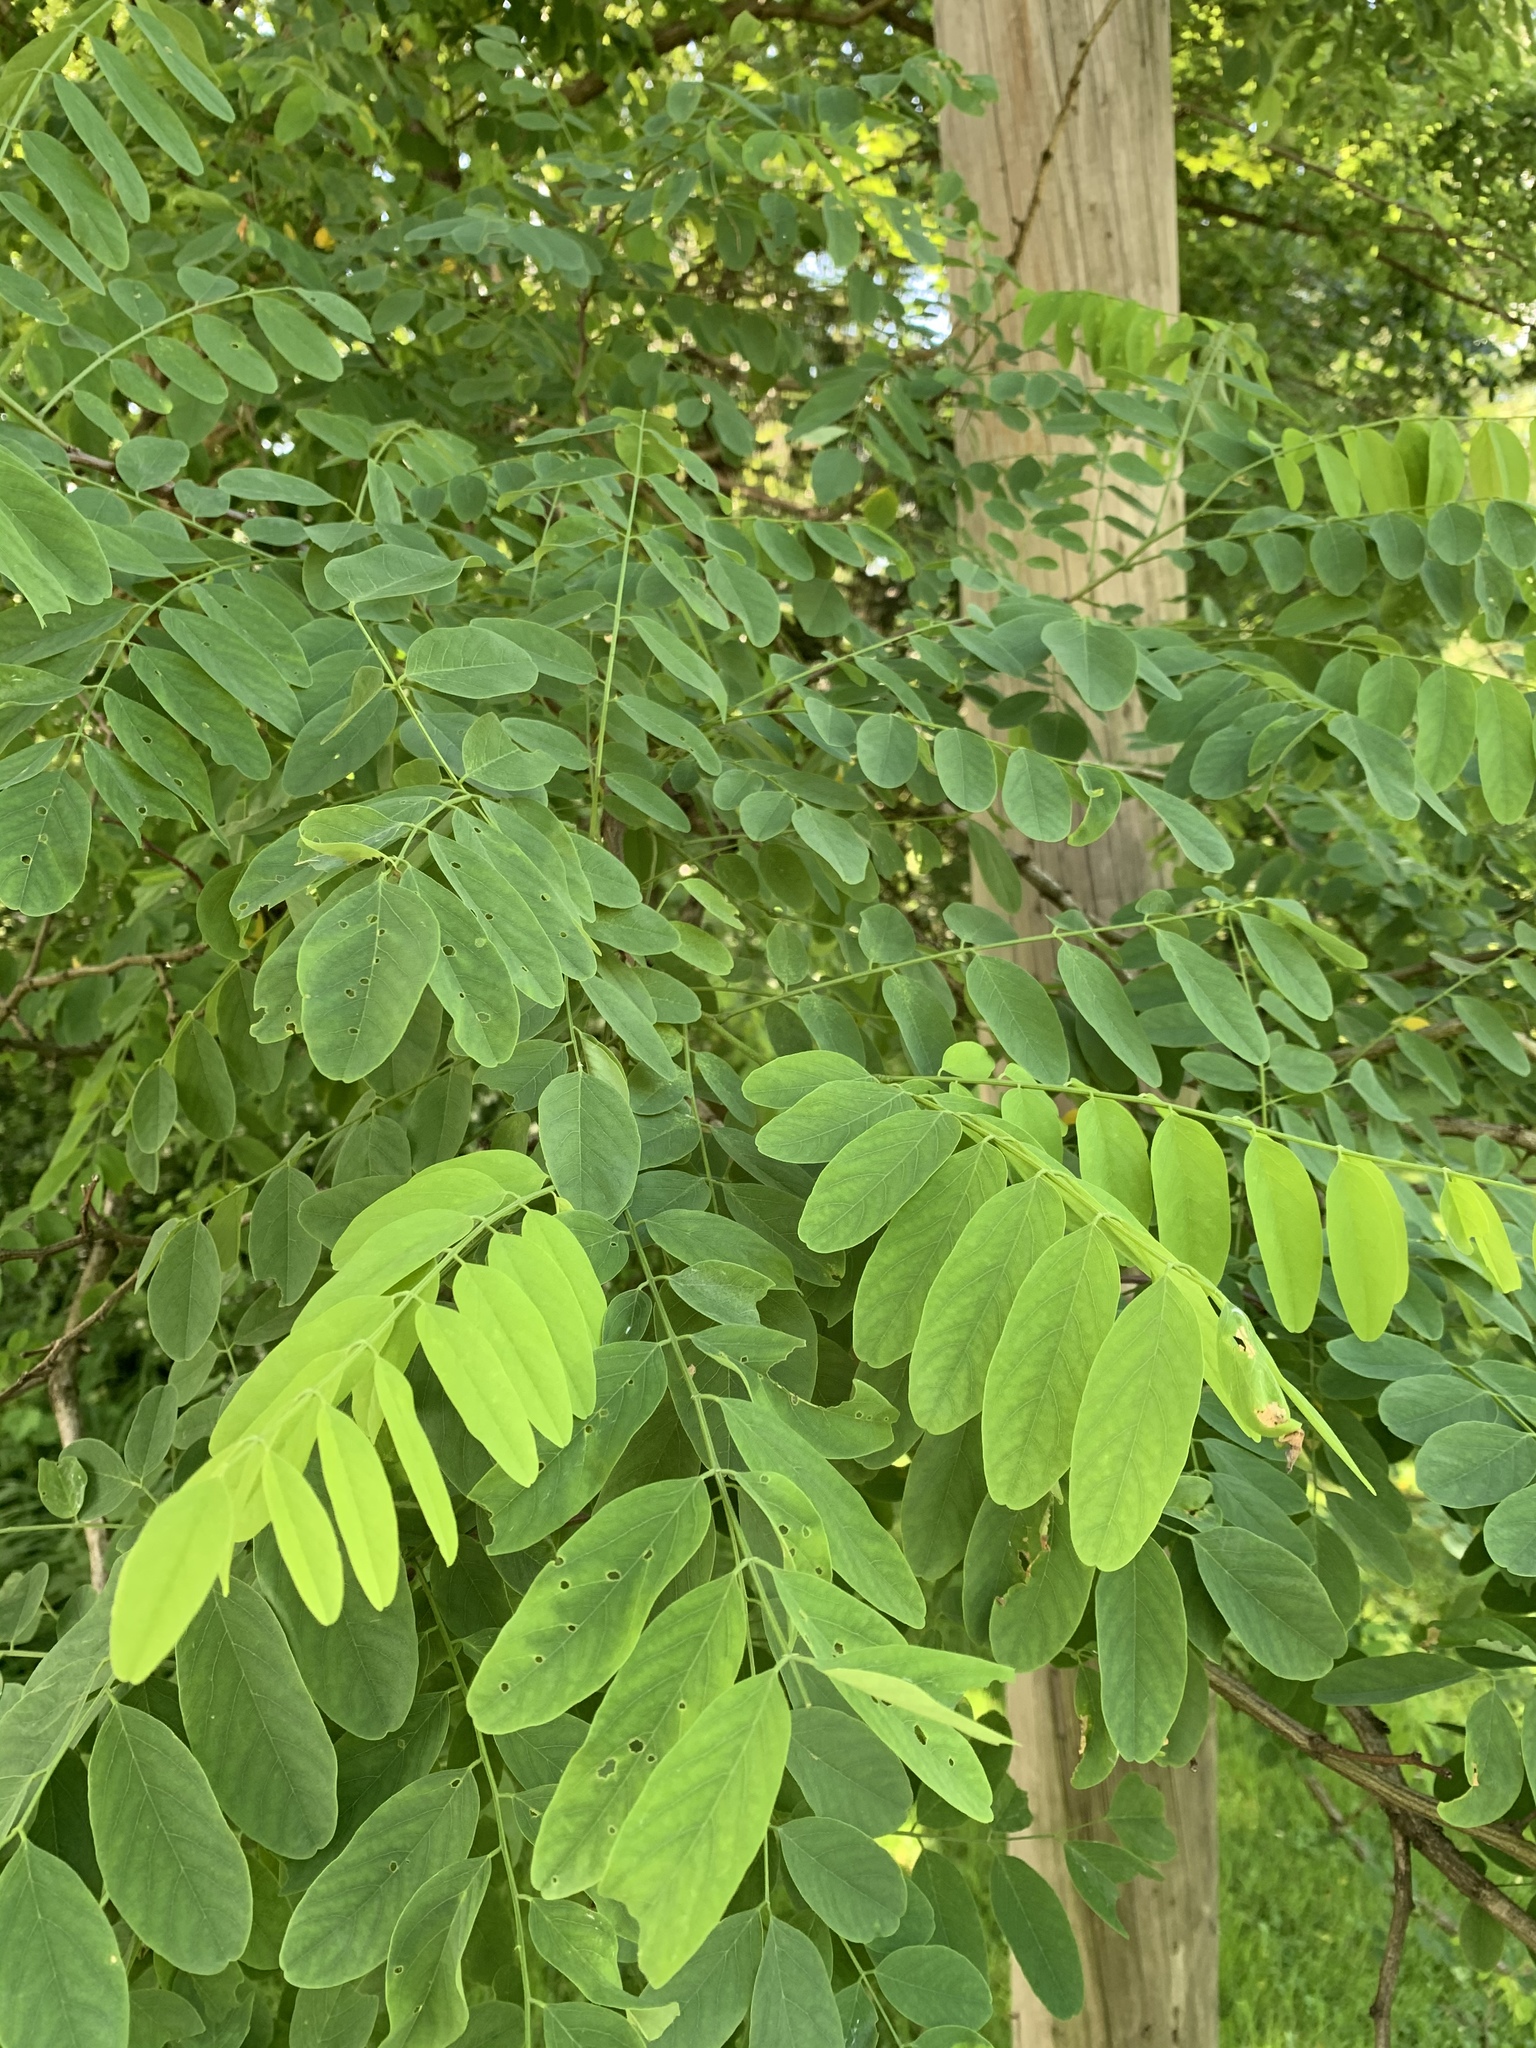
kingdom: Plantae
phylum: Tracheophyta
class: Magnoliopsida
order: Fabales
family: Fabaceae
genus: Robinia
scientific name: Robinia pseudoacacia
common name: Black locust
